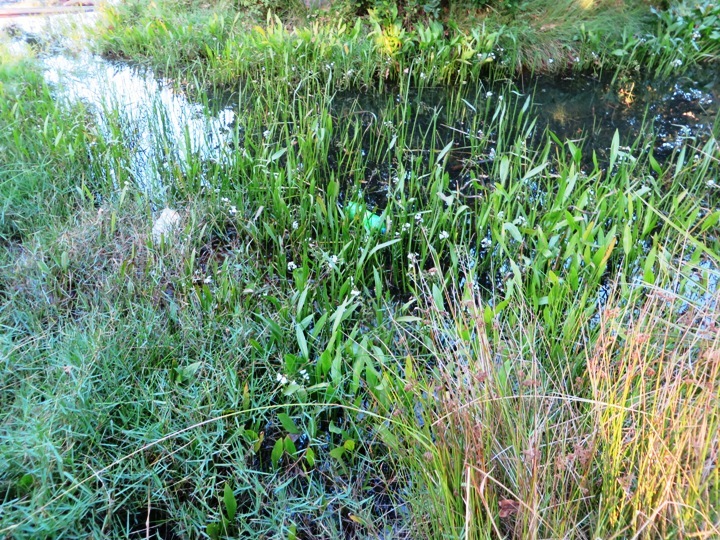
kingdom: Plantae
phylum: Tracheophyta
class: Liliopsida
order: Alismatales
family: Alismataceae
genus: Alisma
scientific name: Alisma plantago-aquatica
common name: Water-plantain
